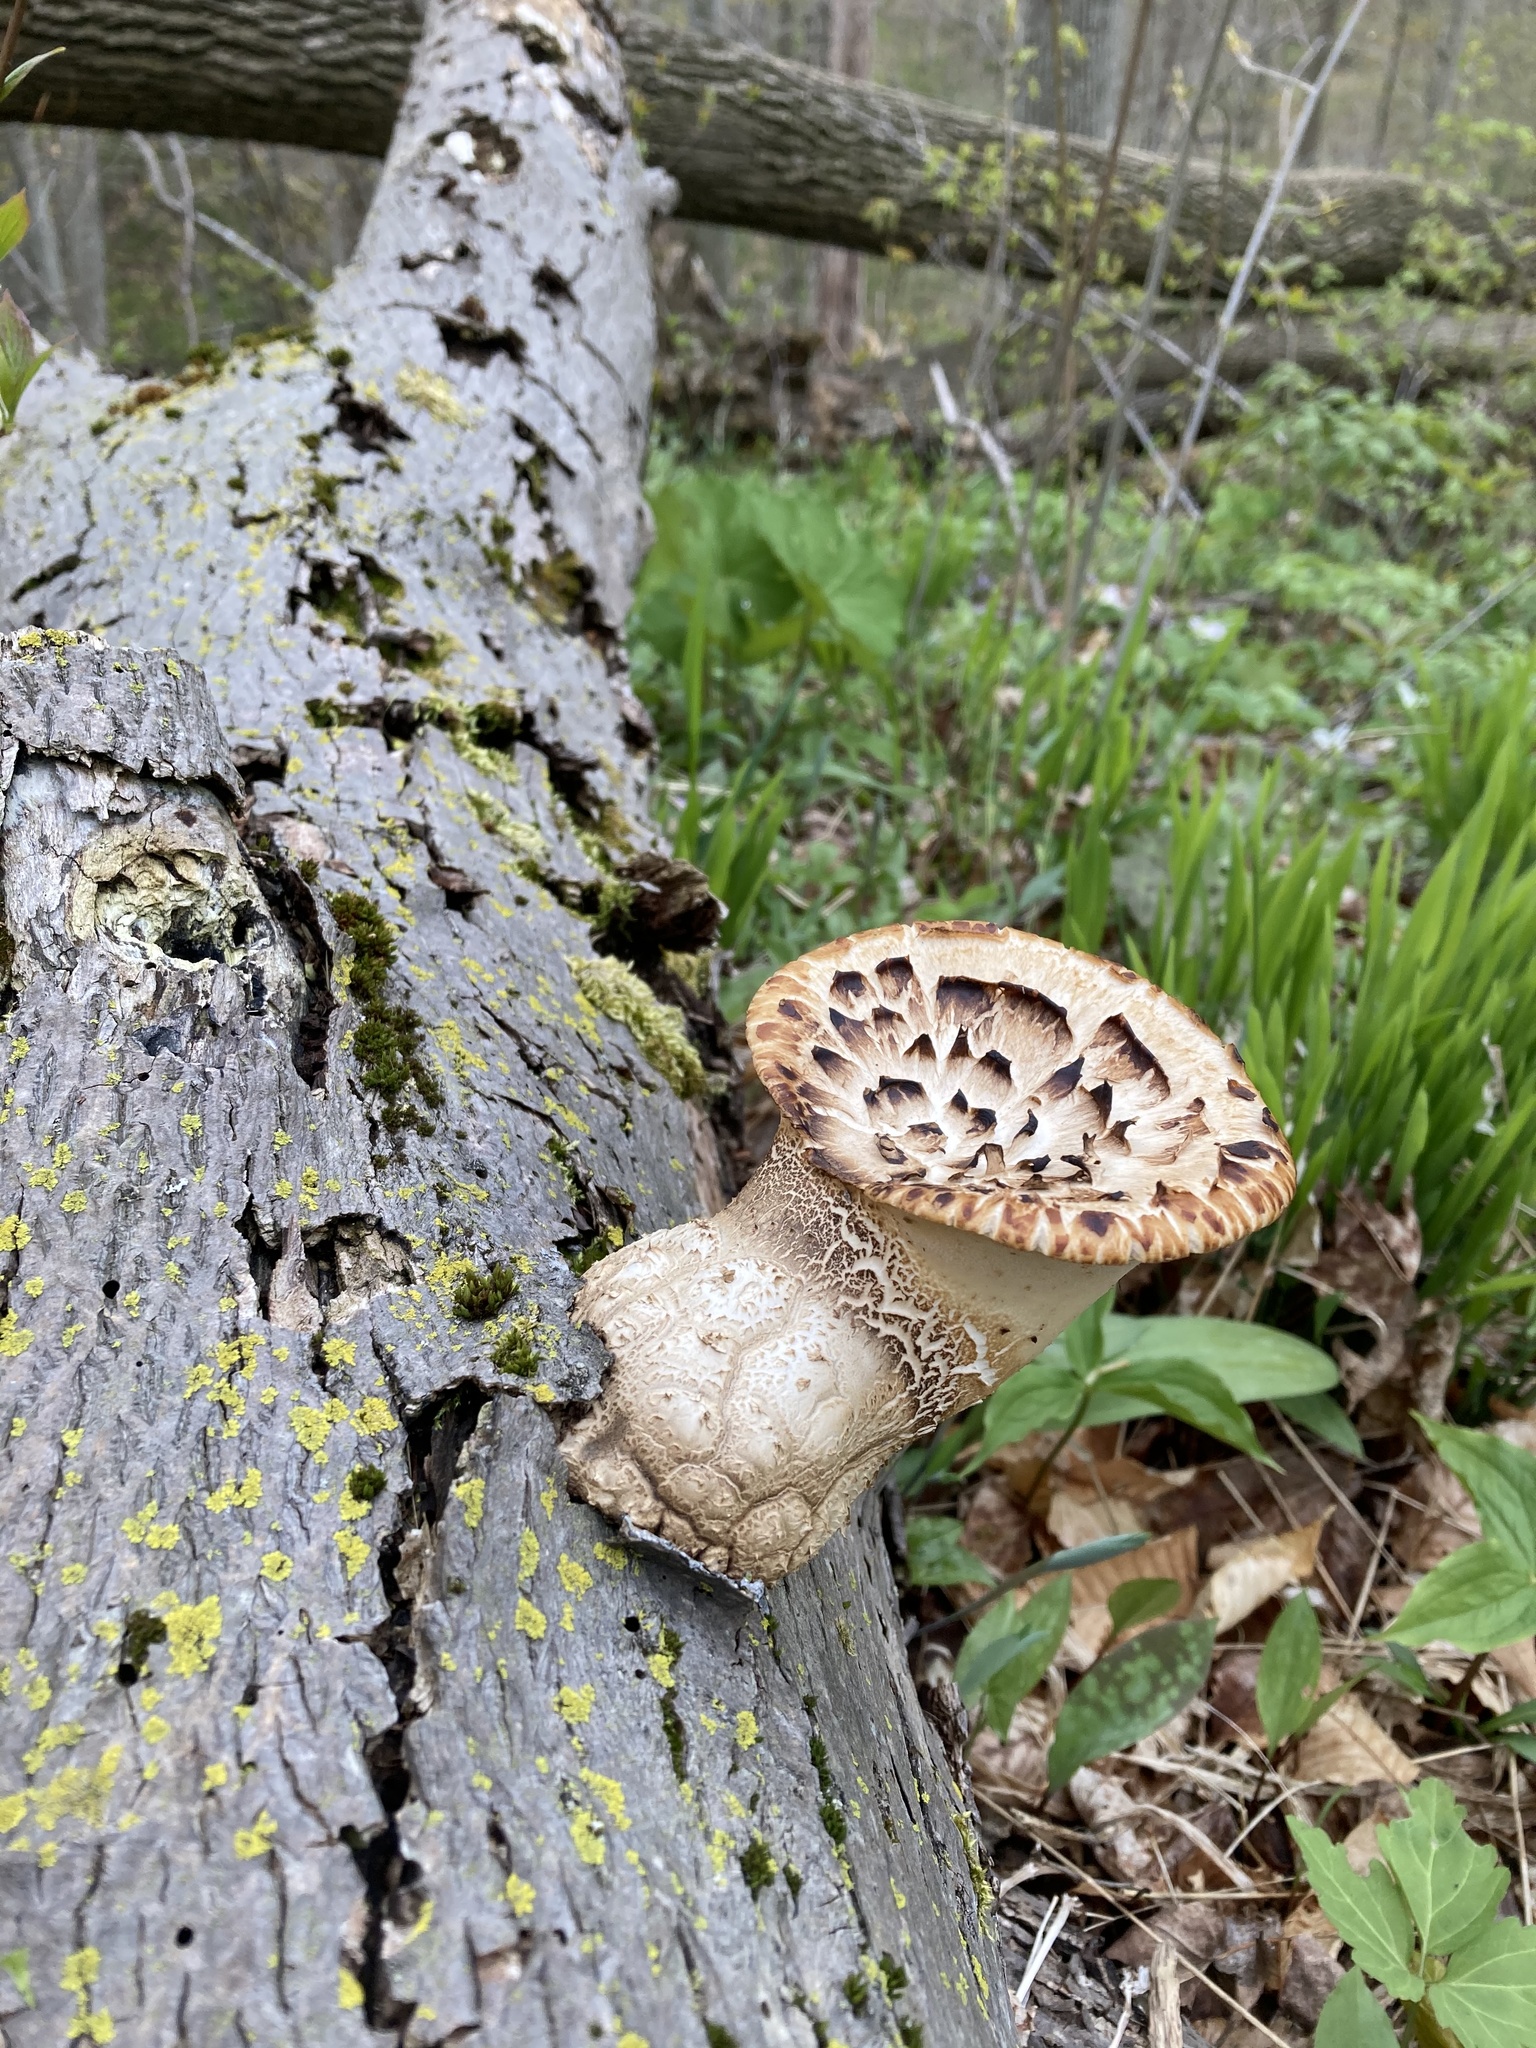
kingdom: Fungi
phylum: Basidiomycota
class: Agaricomycetes
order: Polyporales
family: Polyporaceae
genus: Cerioporus
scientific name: Cerioporus squamosus
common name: Dryad's saddle
